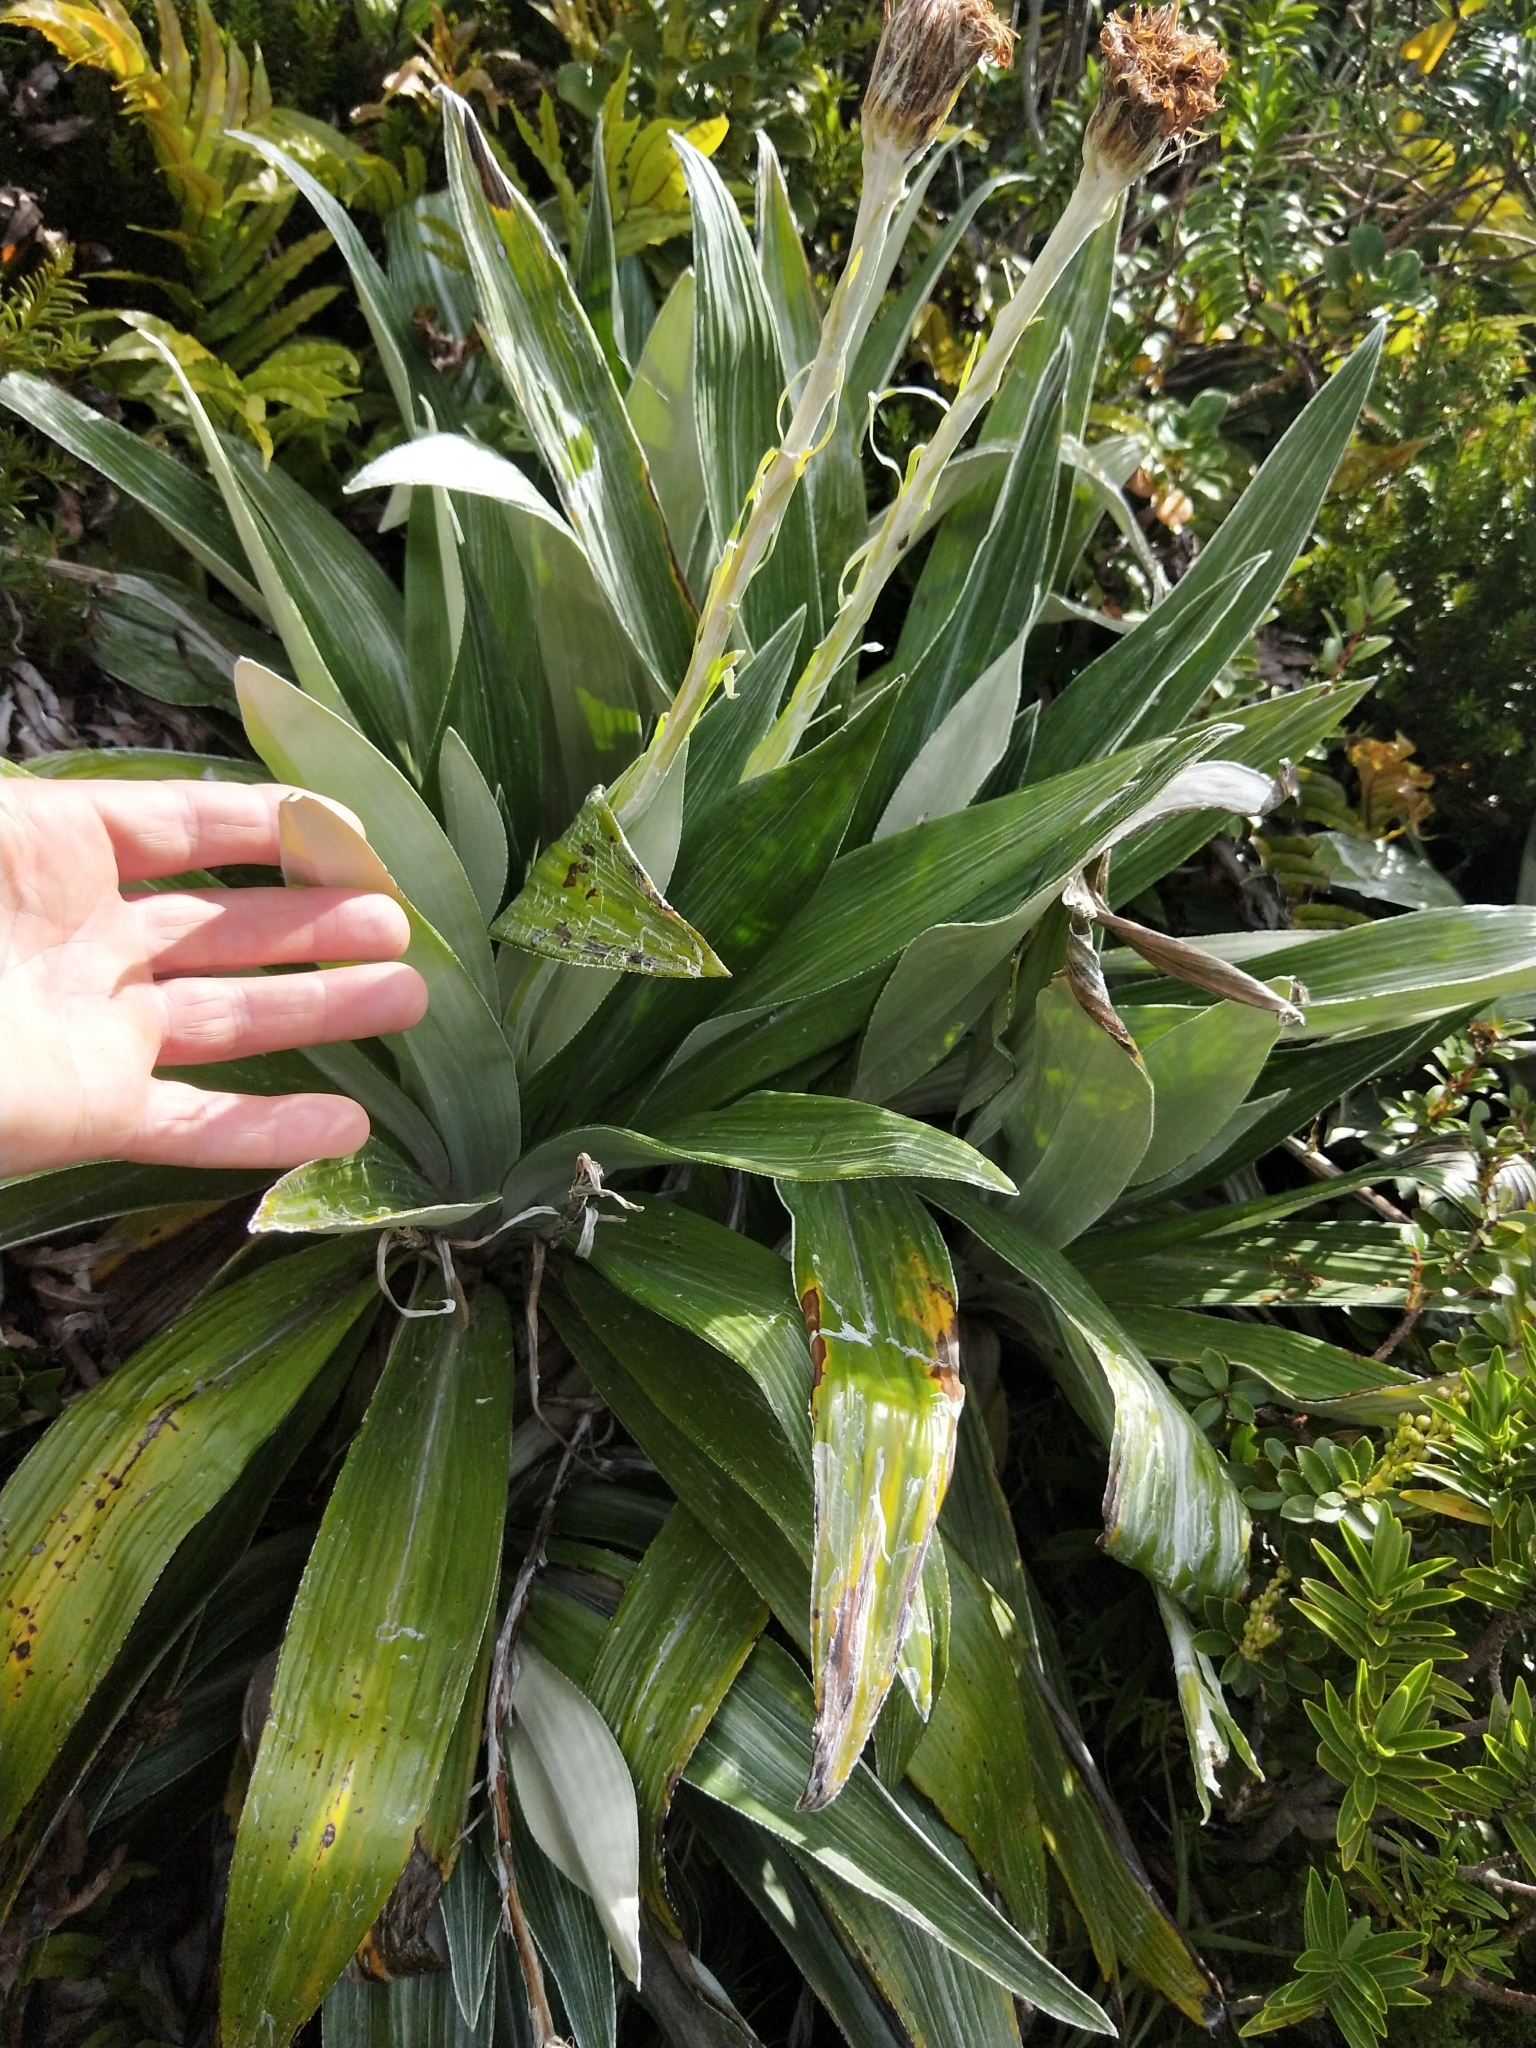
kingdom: Plantae
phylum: Tracheophyta
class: Magnoliopsida
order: Asterales
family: Asteraceae
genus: Celmisia
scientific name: Celmisia semicordata
